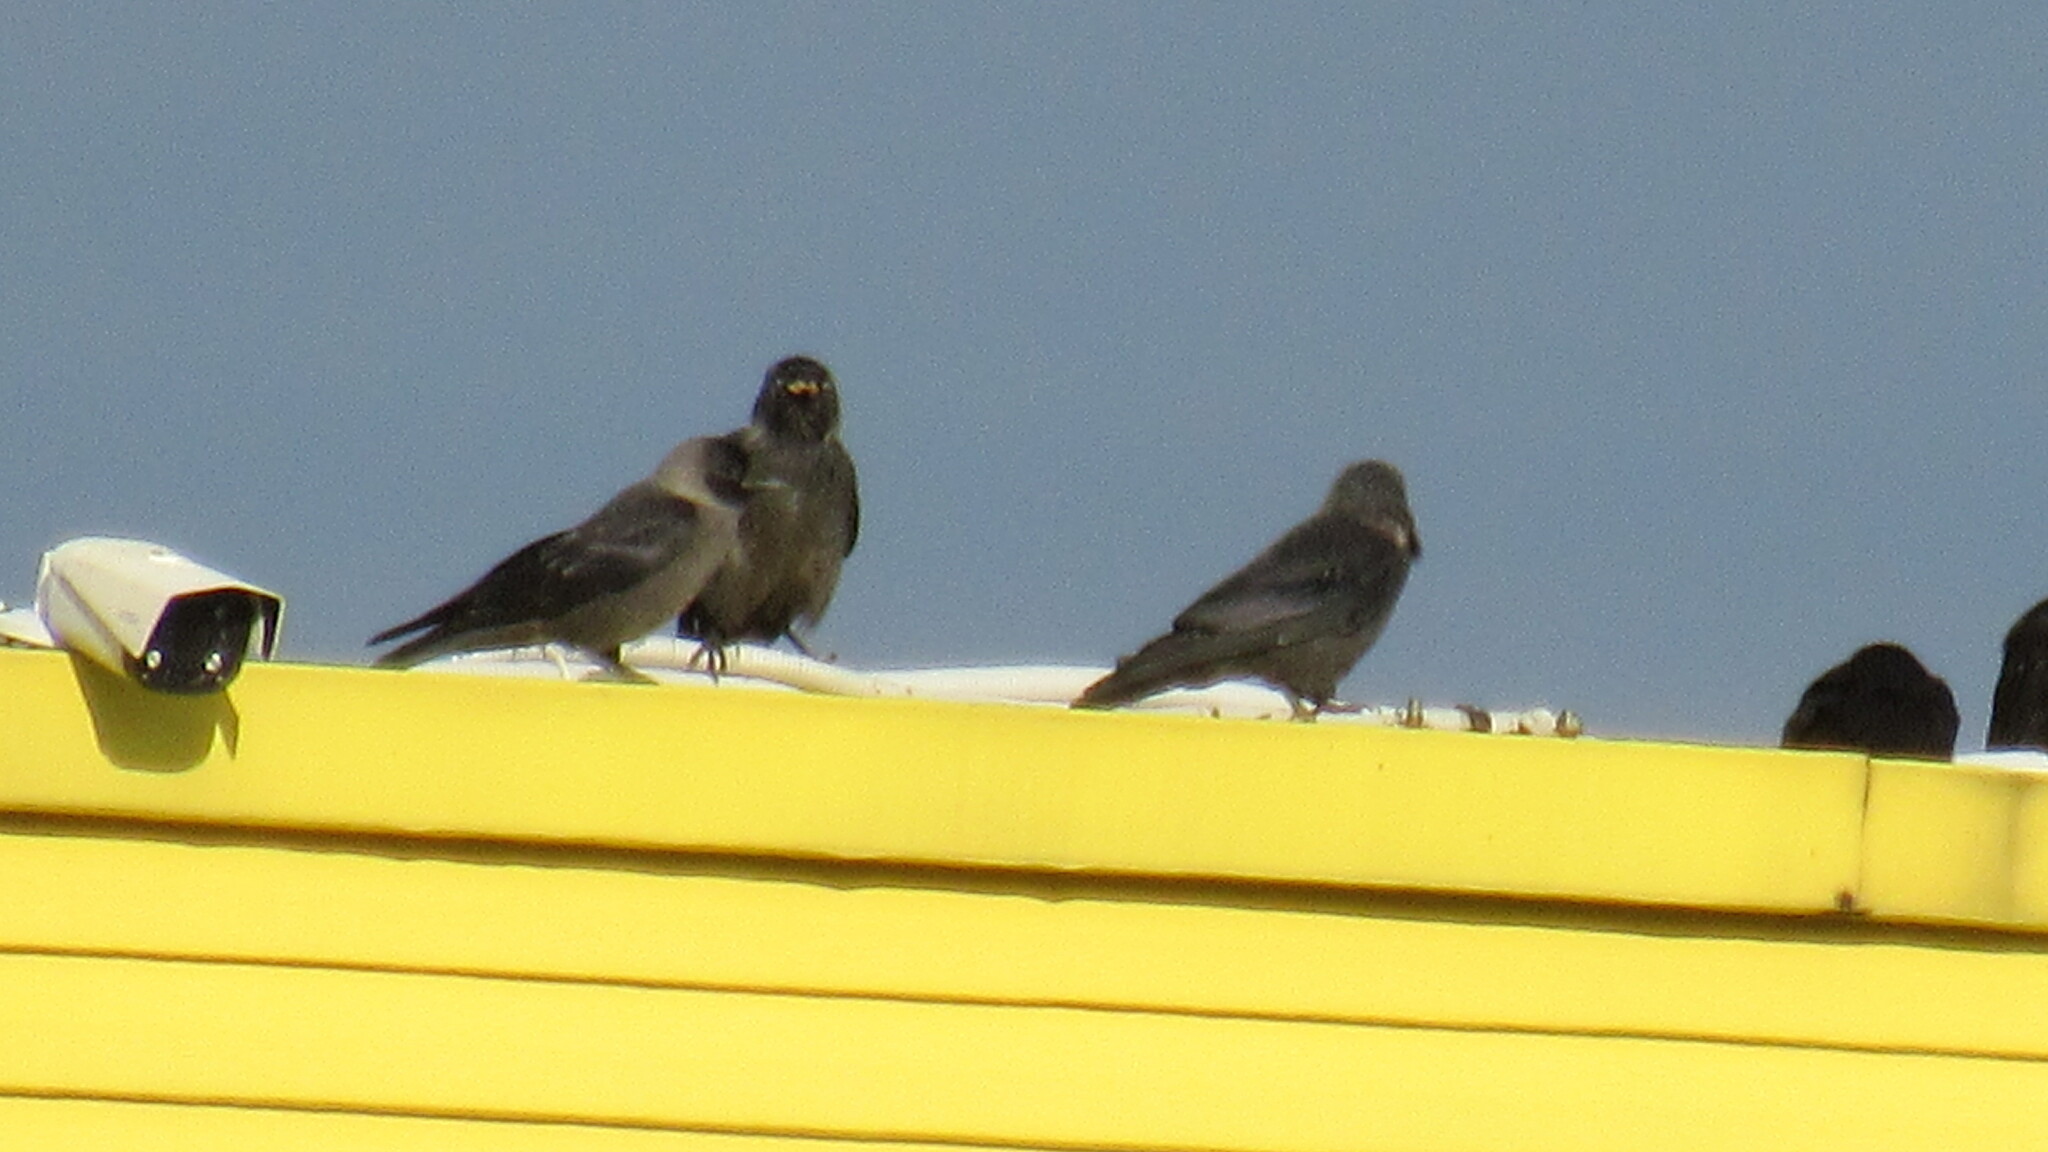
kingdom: Animalia
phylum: Chordata
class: Aves
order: Passeriformes
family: Corvidae
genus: Coloeus
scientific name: Coloeus monedula
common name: Western jackdaw
